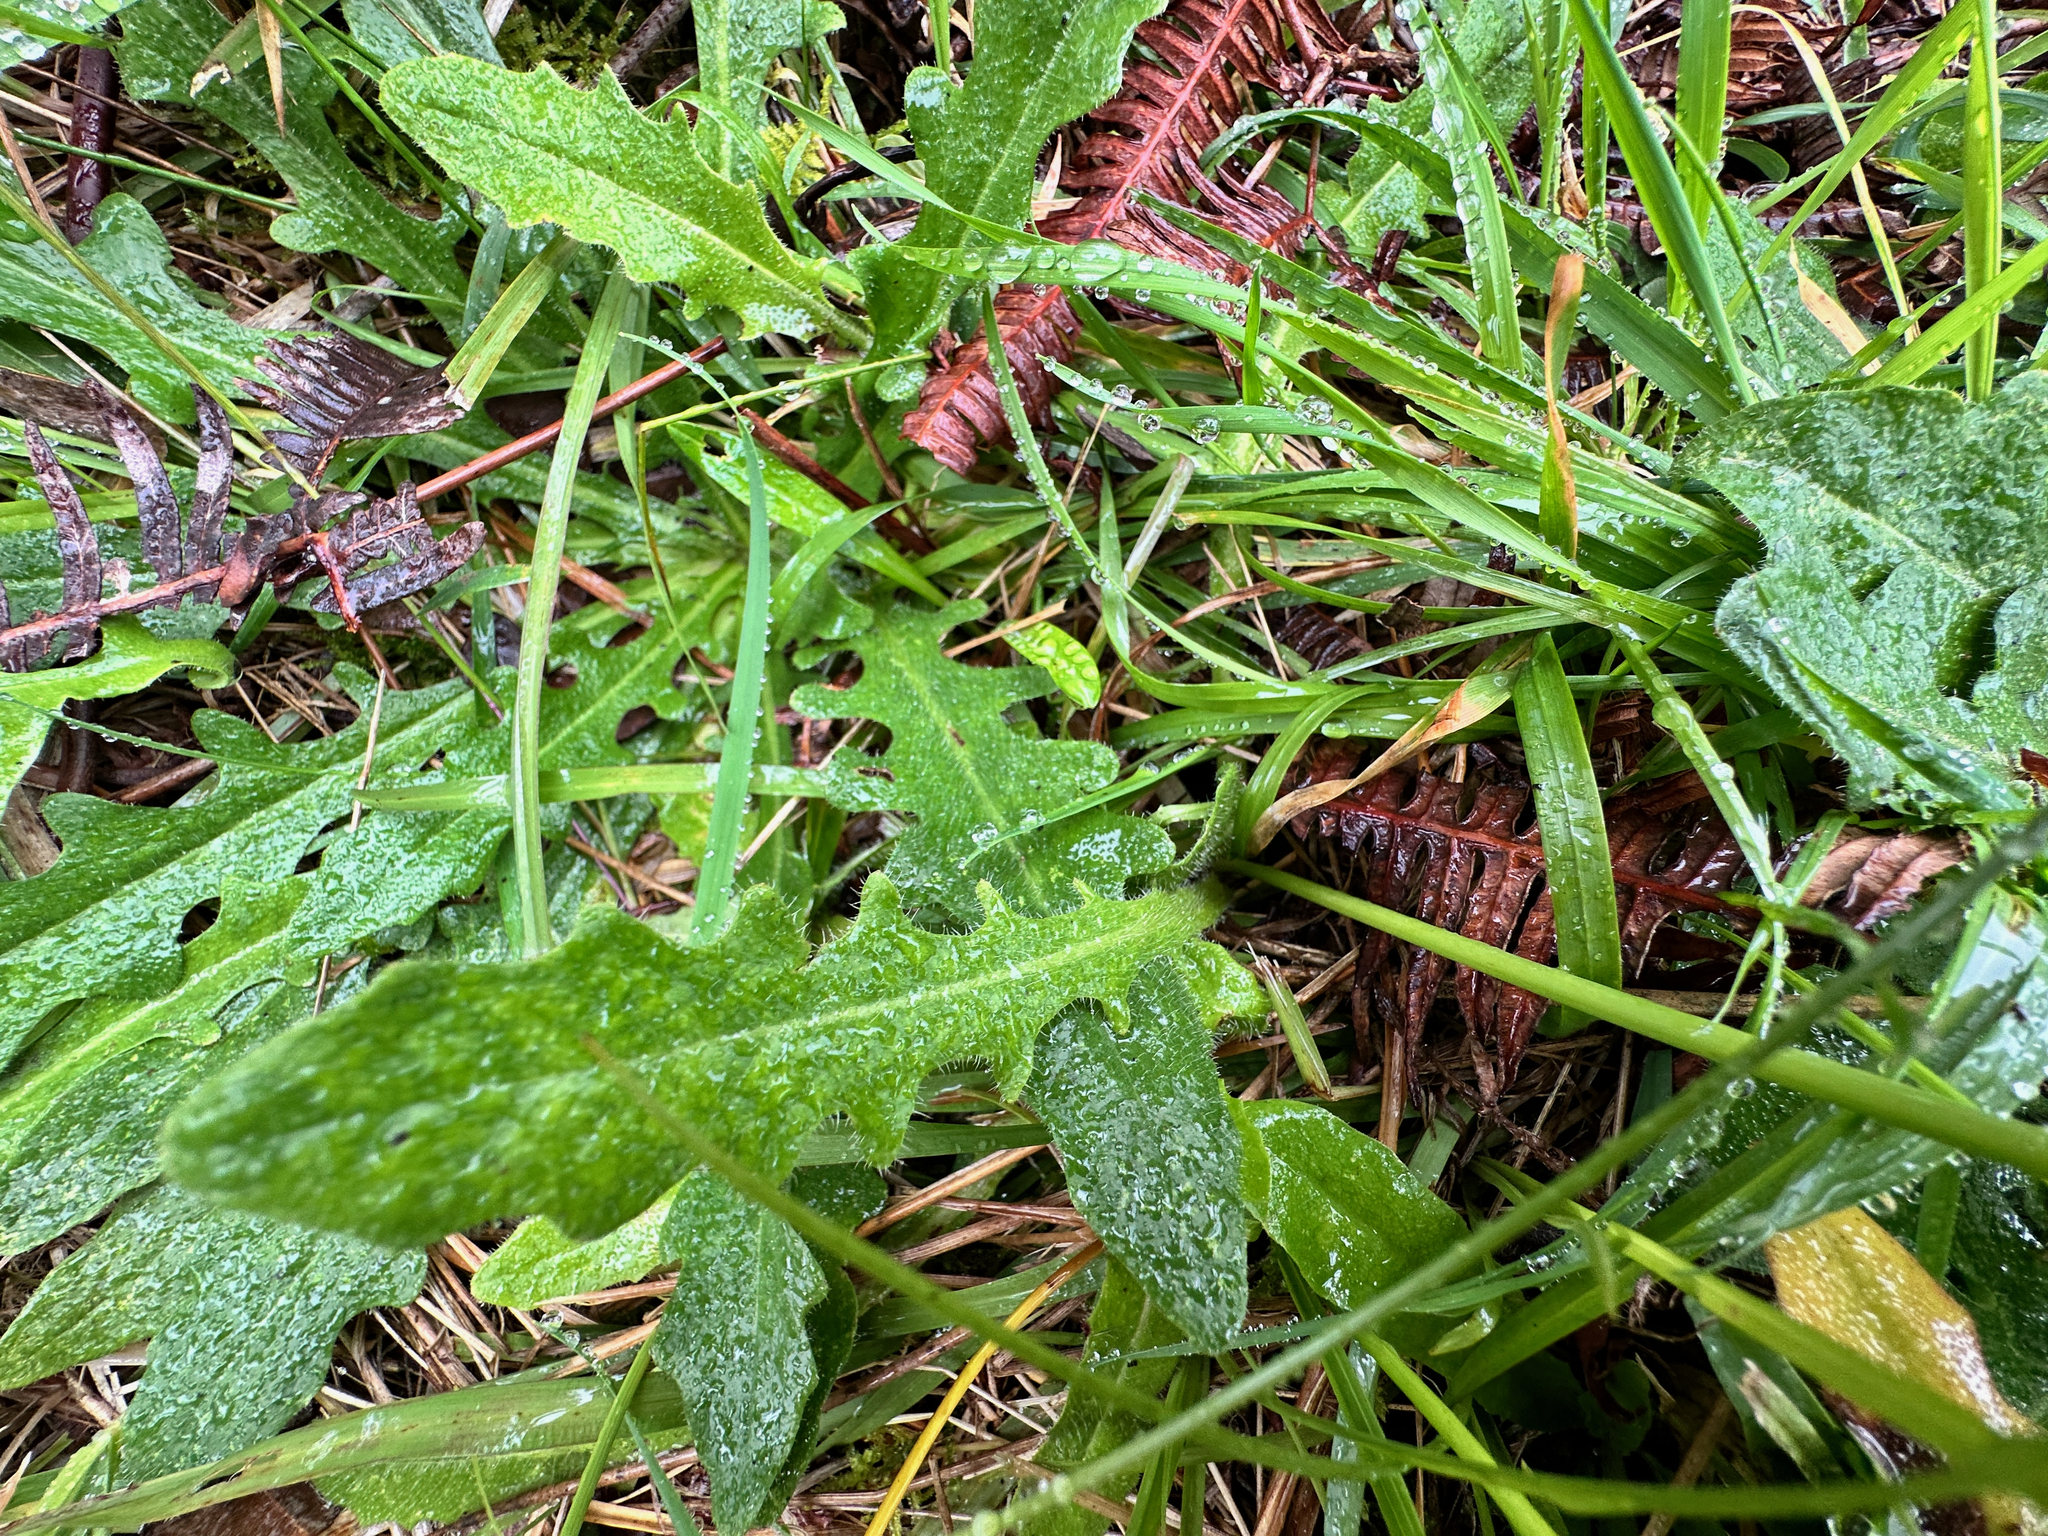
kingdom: Plantae
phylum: Tracheophyta
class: Magnoliopsida
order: Asterales
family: Asteraceae
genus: Hypochaeris
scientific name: Hypochaeris radicata
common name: Flatweed
